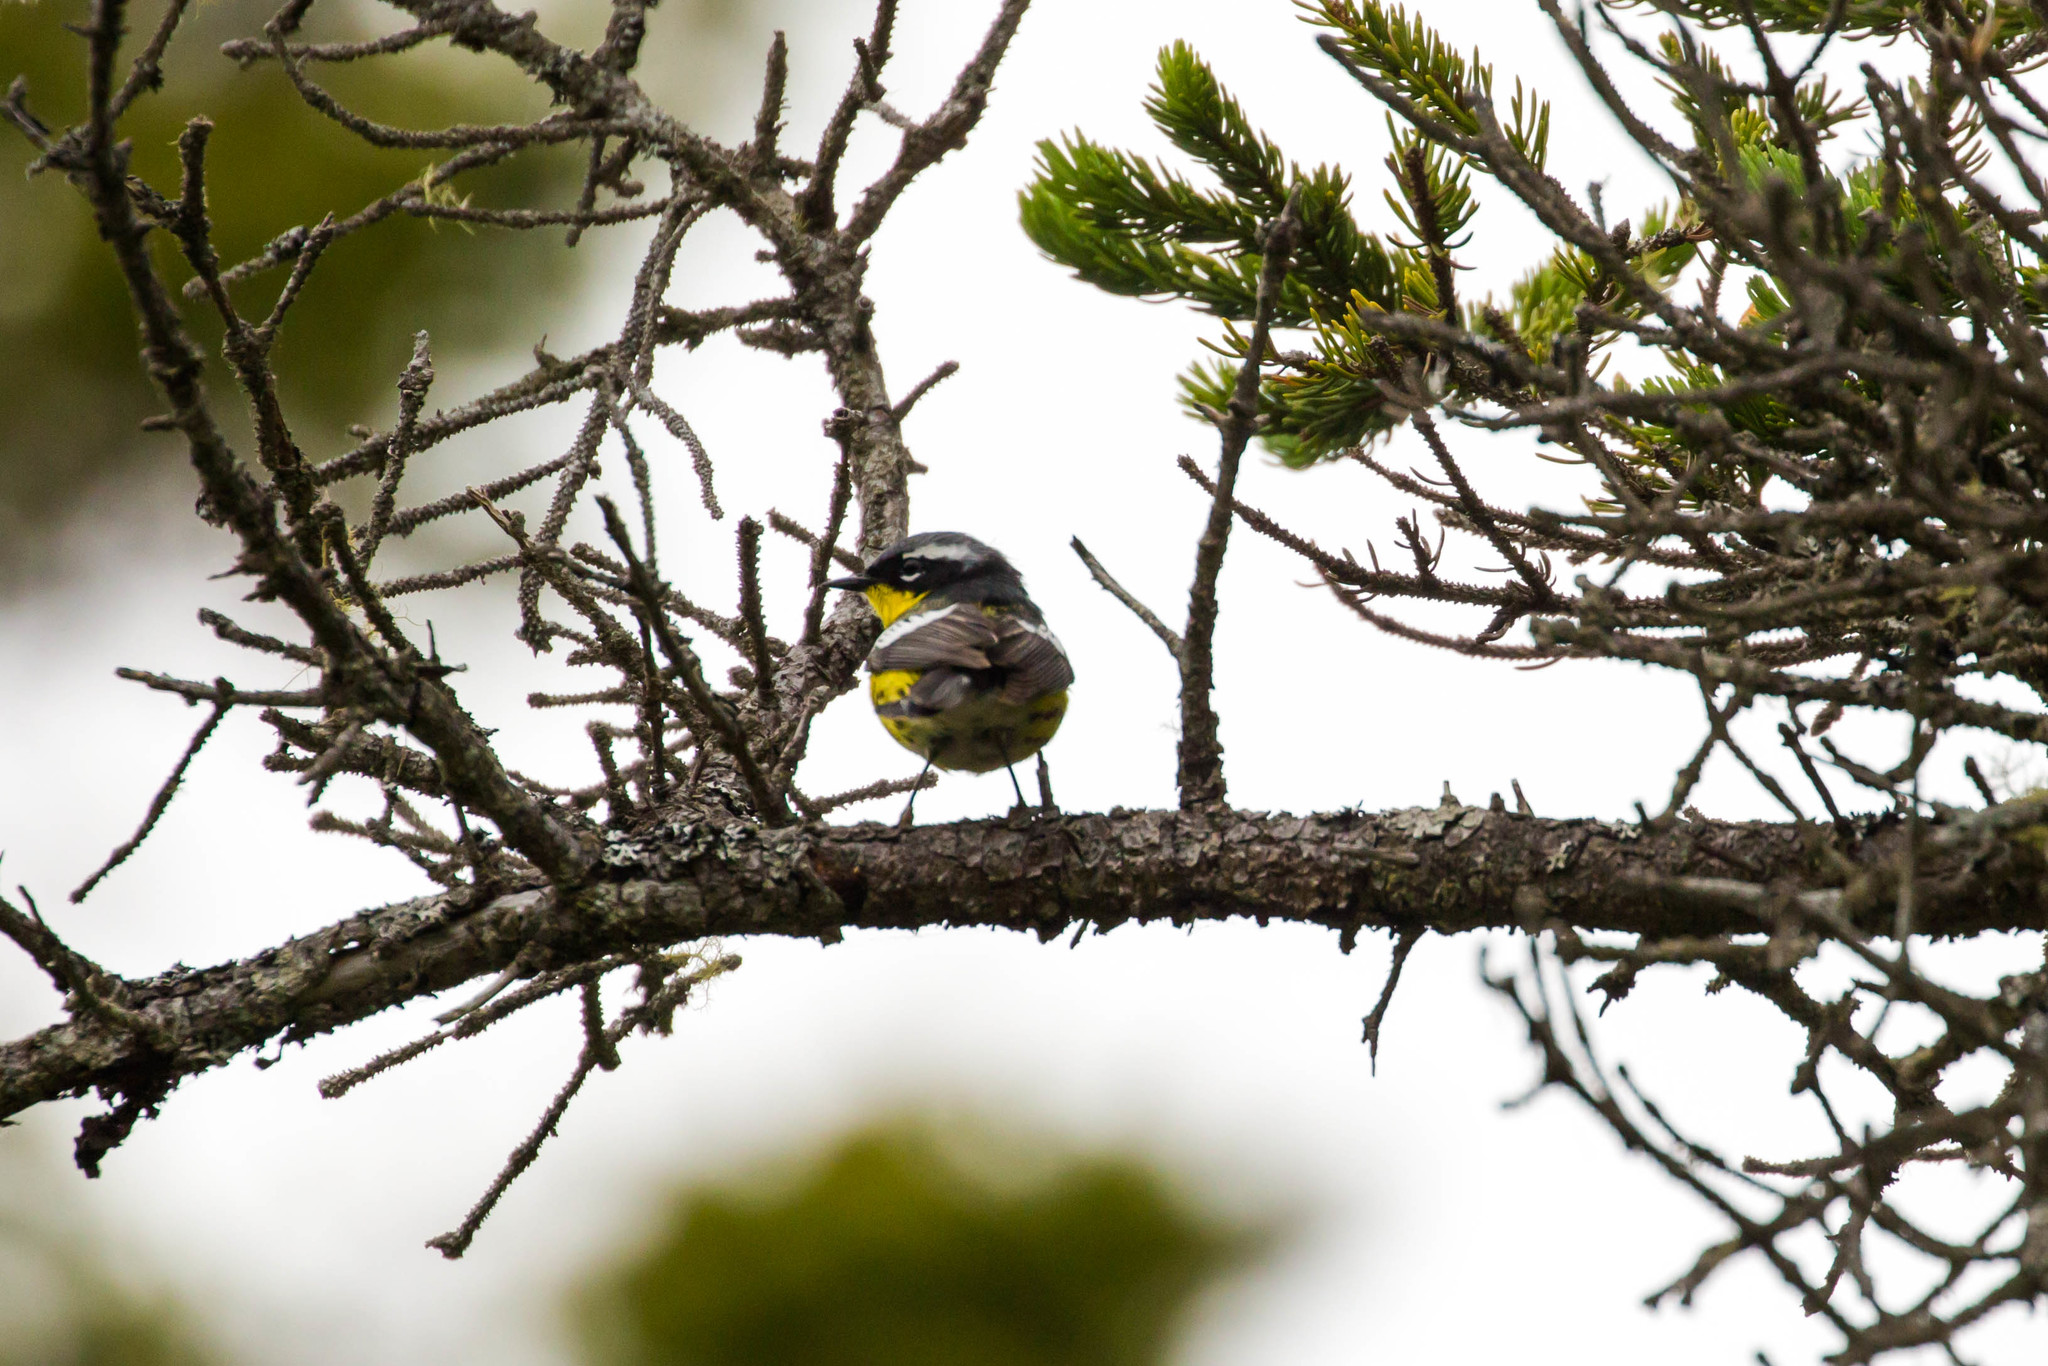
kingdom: Animalia
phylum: Chordata
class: Aves
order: Passeriformes
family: Parulidae
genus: Setophaga
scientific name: Setophaga magnolia
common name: Magnolia warbler
